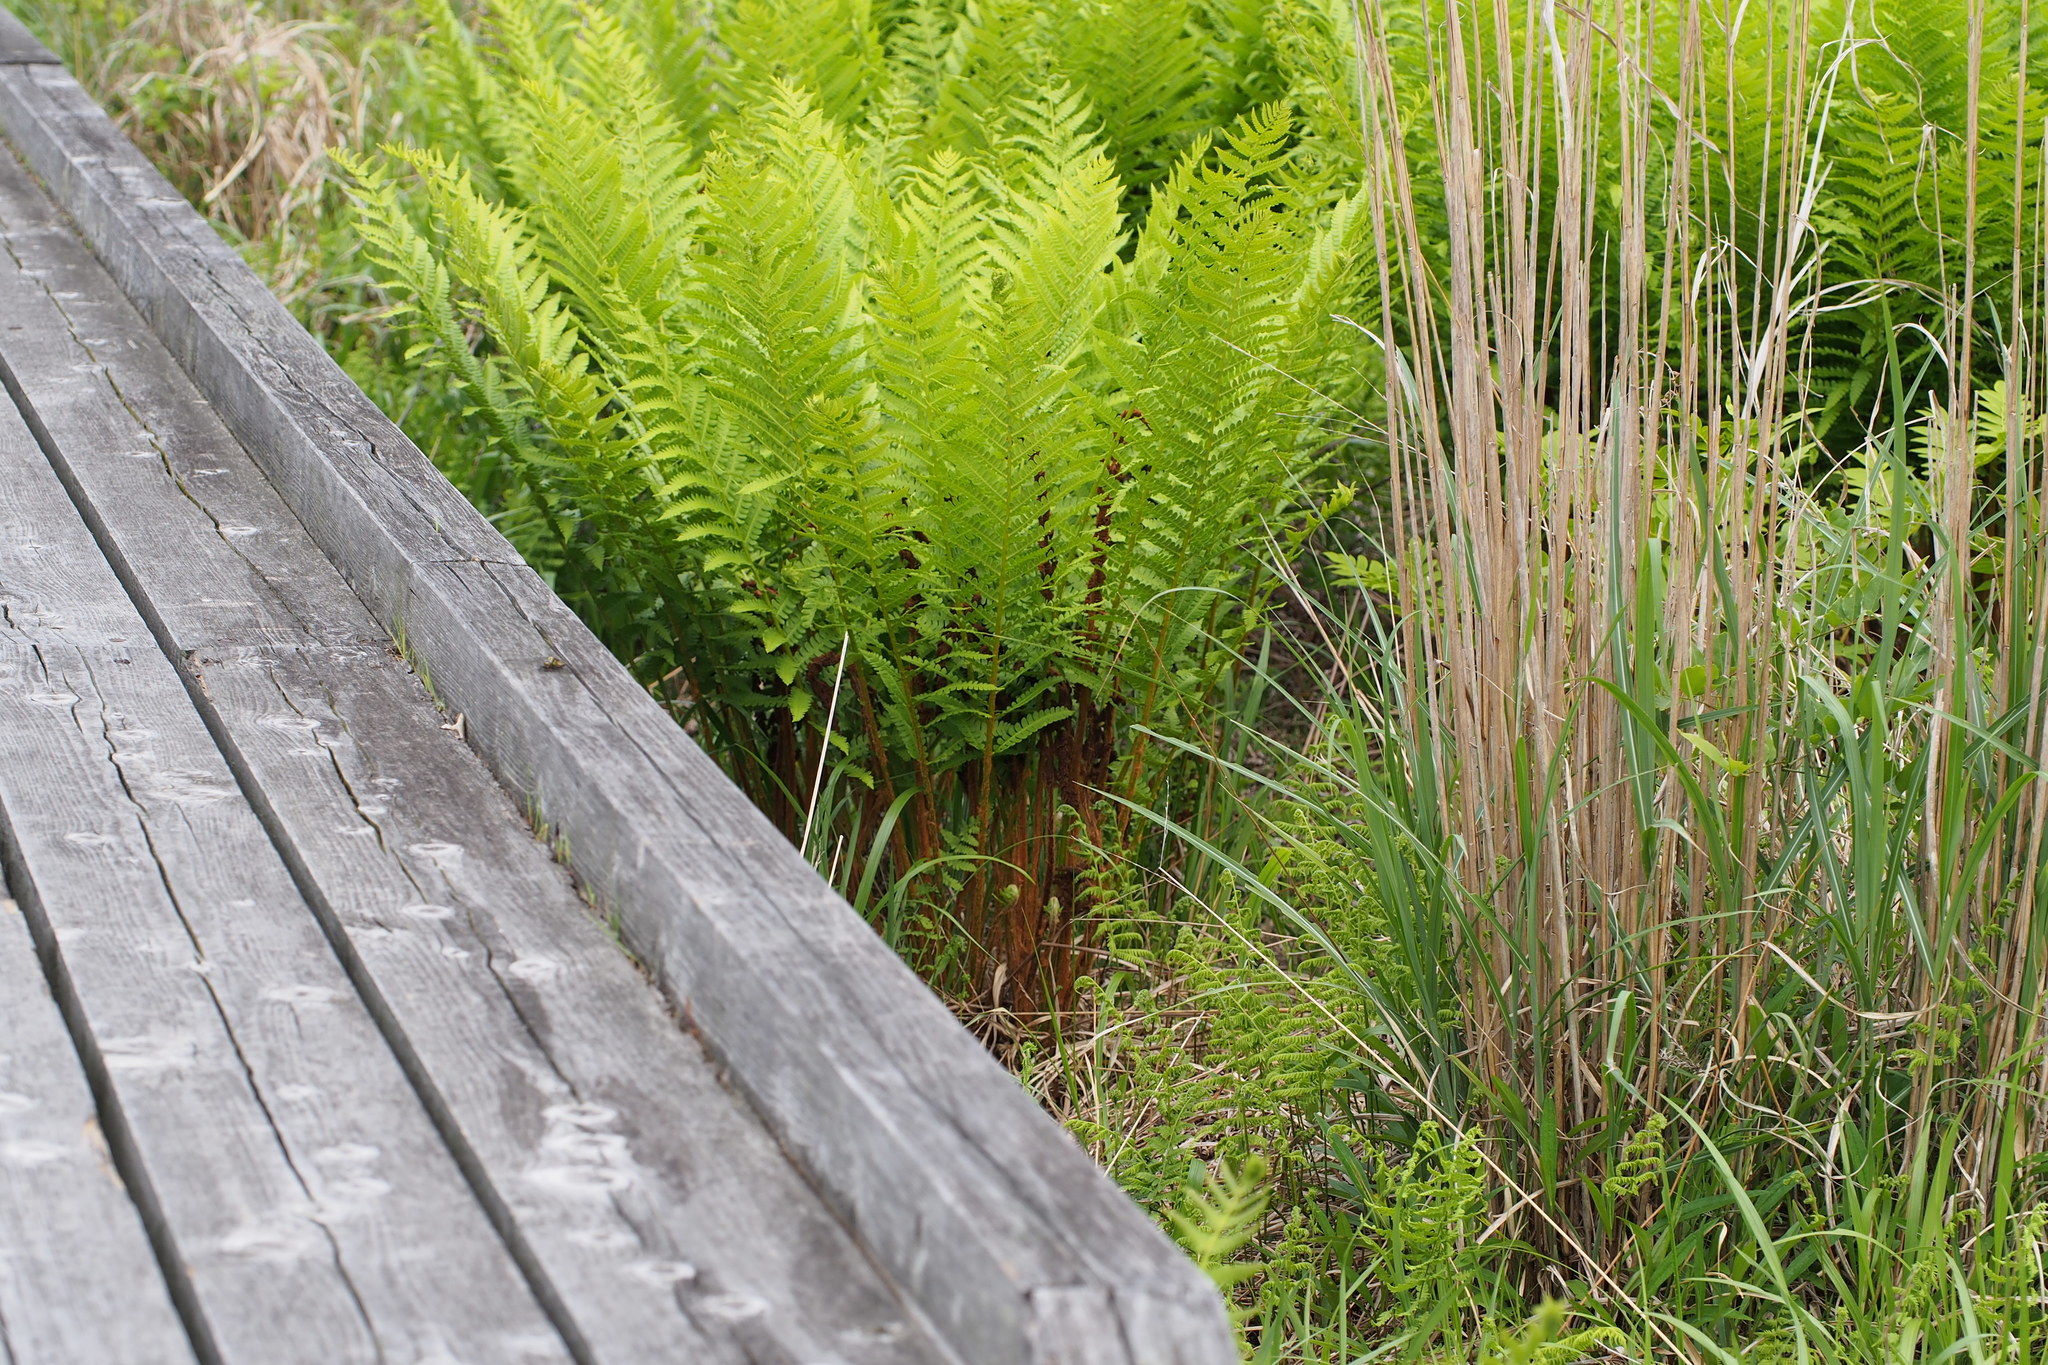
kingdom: Plantae
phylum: Tracheophyta
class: Polypodiopsida
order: Osmundales
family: Osmundaceae
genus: Osmundastrum
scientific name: Osmundastrum cinnamomeum
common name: Cinnamon fern
